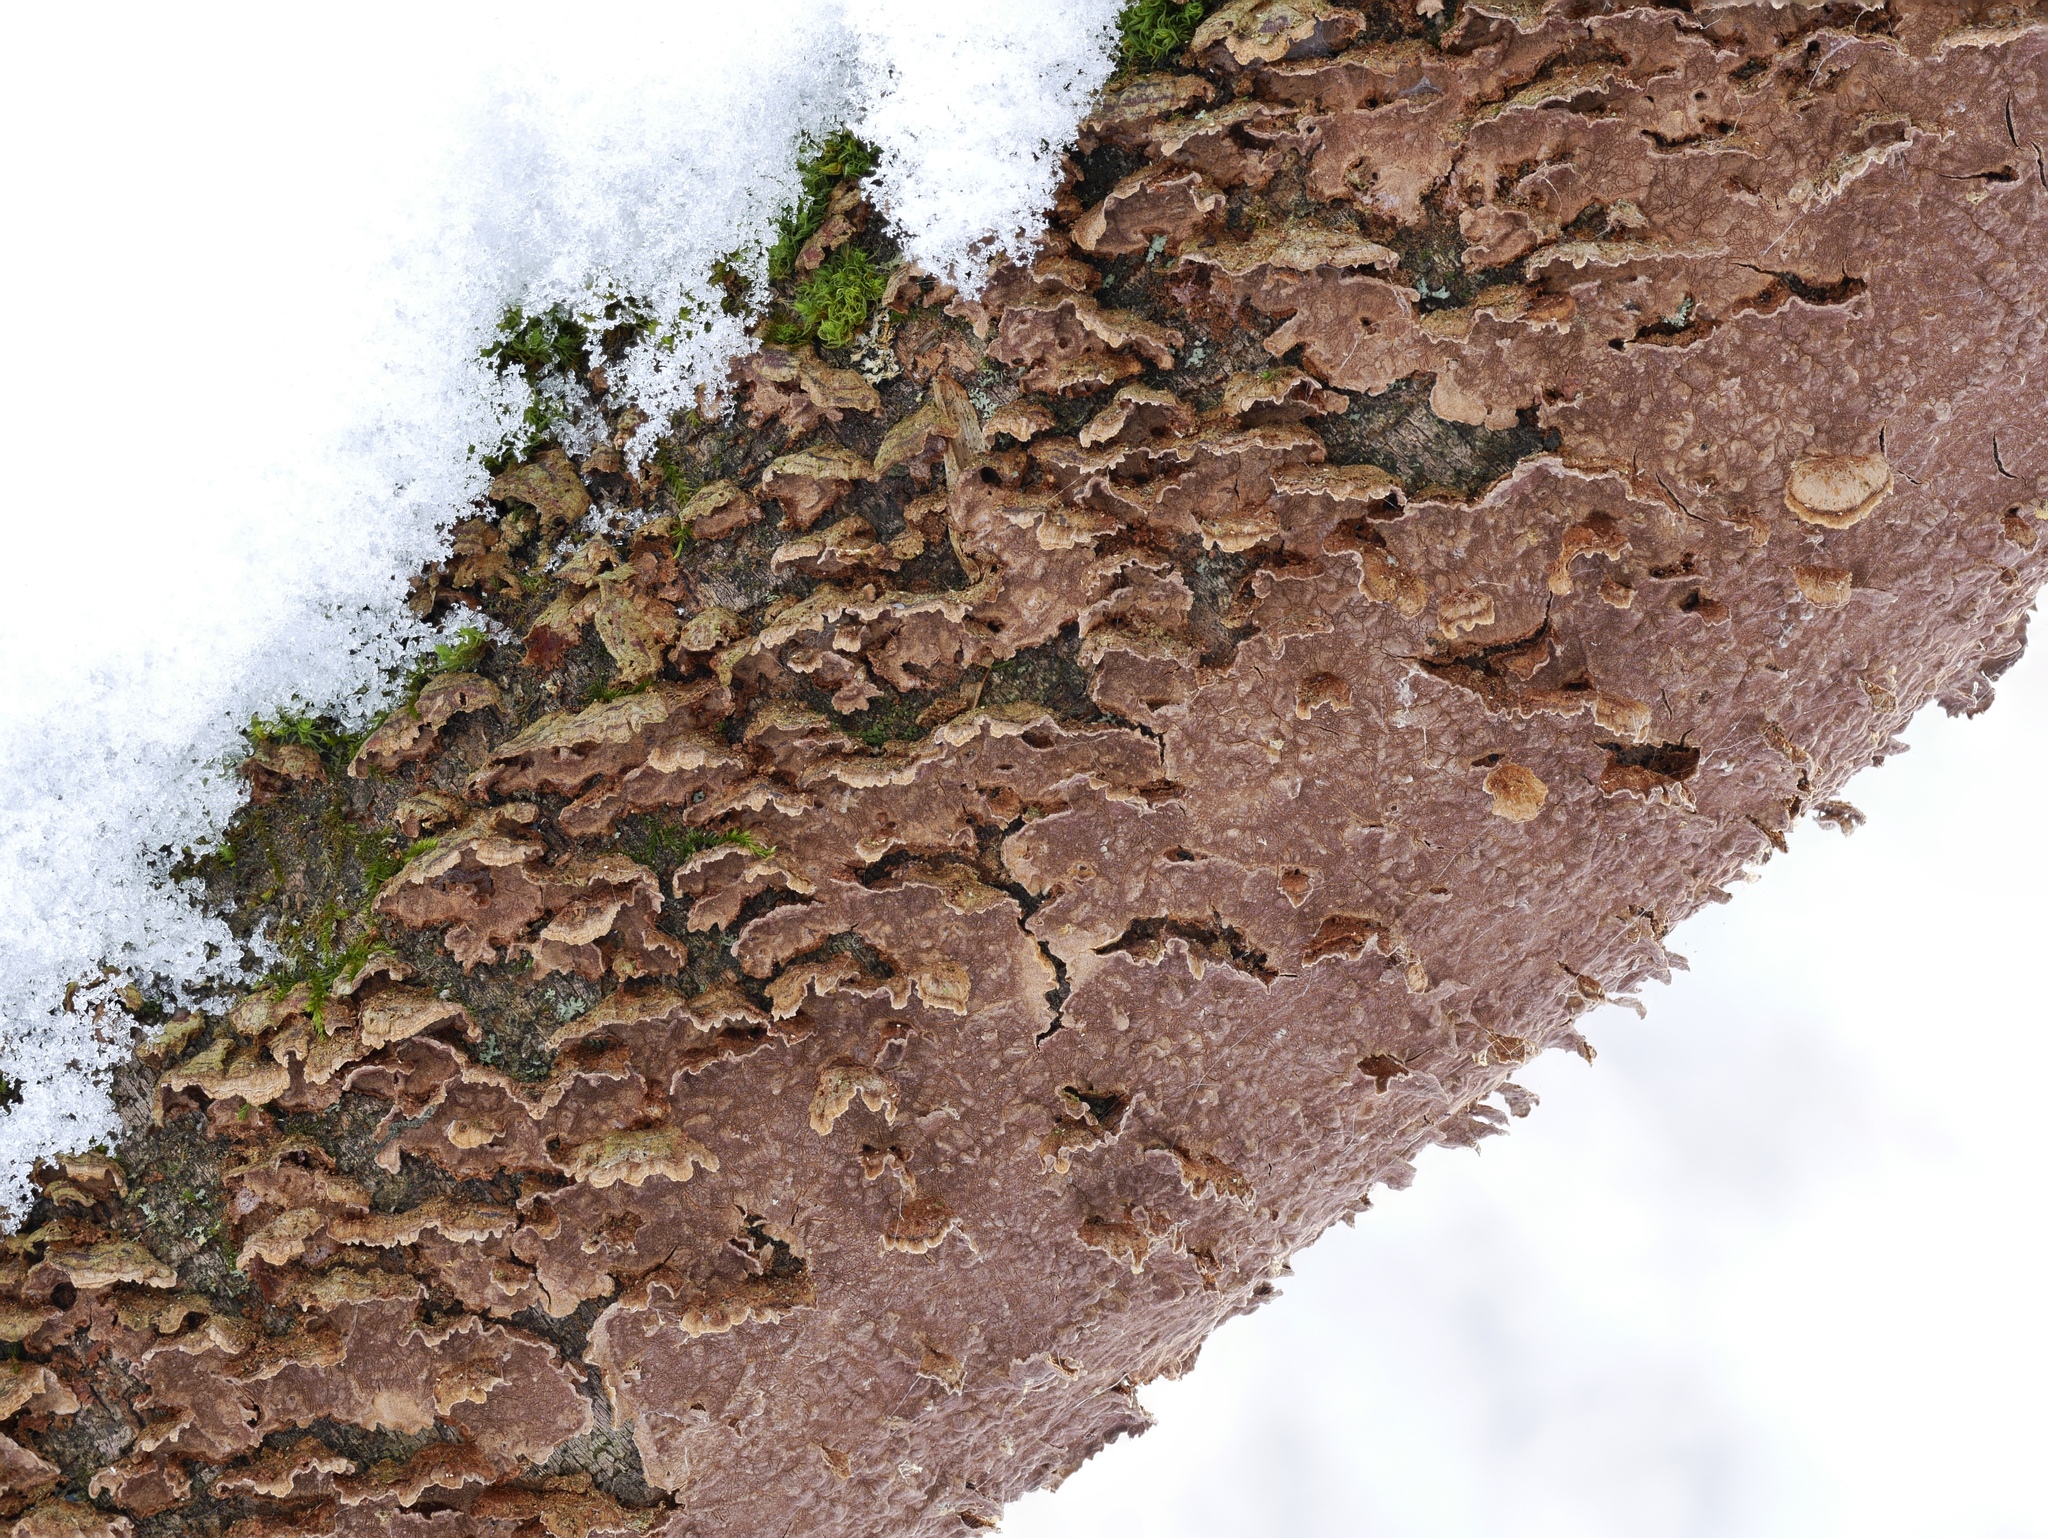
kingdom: Fungi
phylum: Basidiomycota
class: Agaricomycetes
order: Hymenochaetales
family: Hymenochaetaceae
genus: Hydnoporia
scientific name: Hydnoporia tabacina
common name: Willow glue
